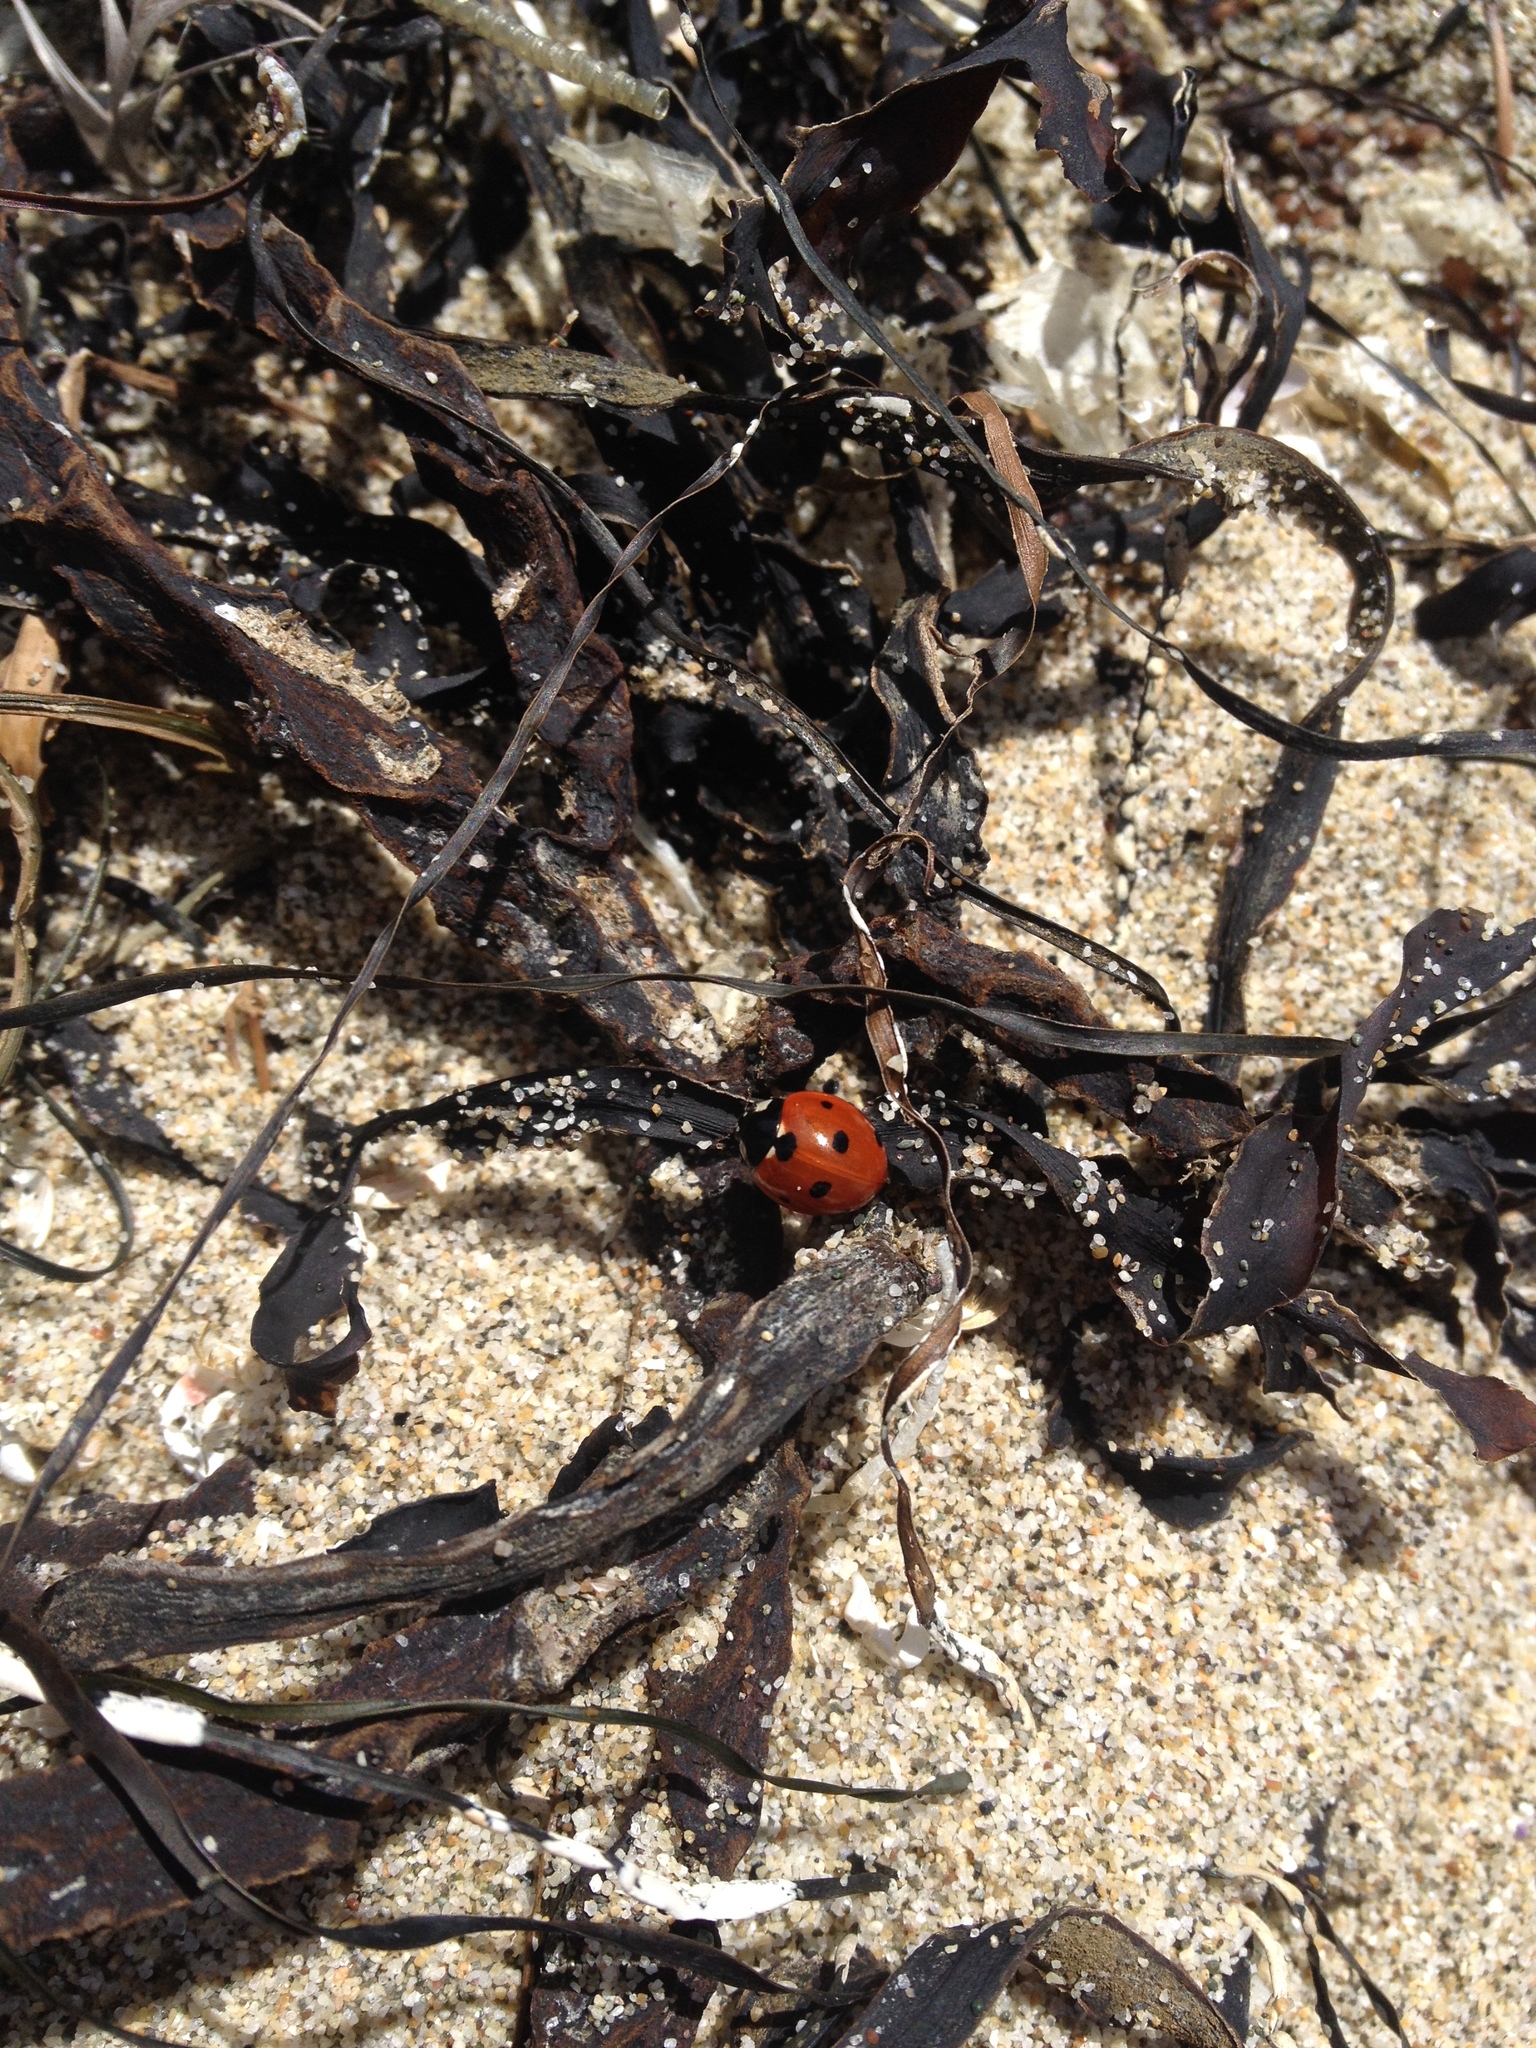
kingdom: Animalia
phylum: Arthropoda
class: Insecta
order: Coleoptera
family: Coccinellidae
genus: Coccinella
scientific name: Coccinella septempunctata
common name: Sevenspotted lady beetle
